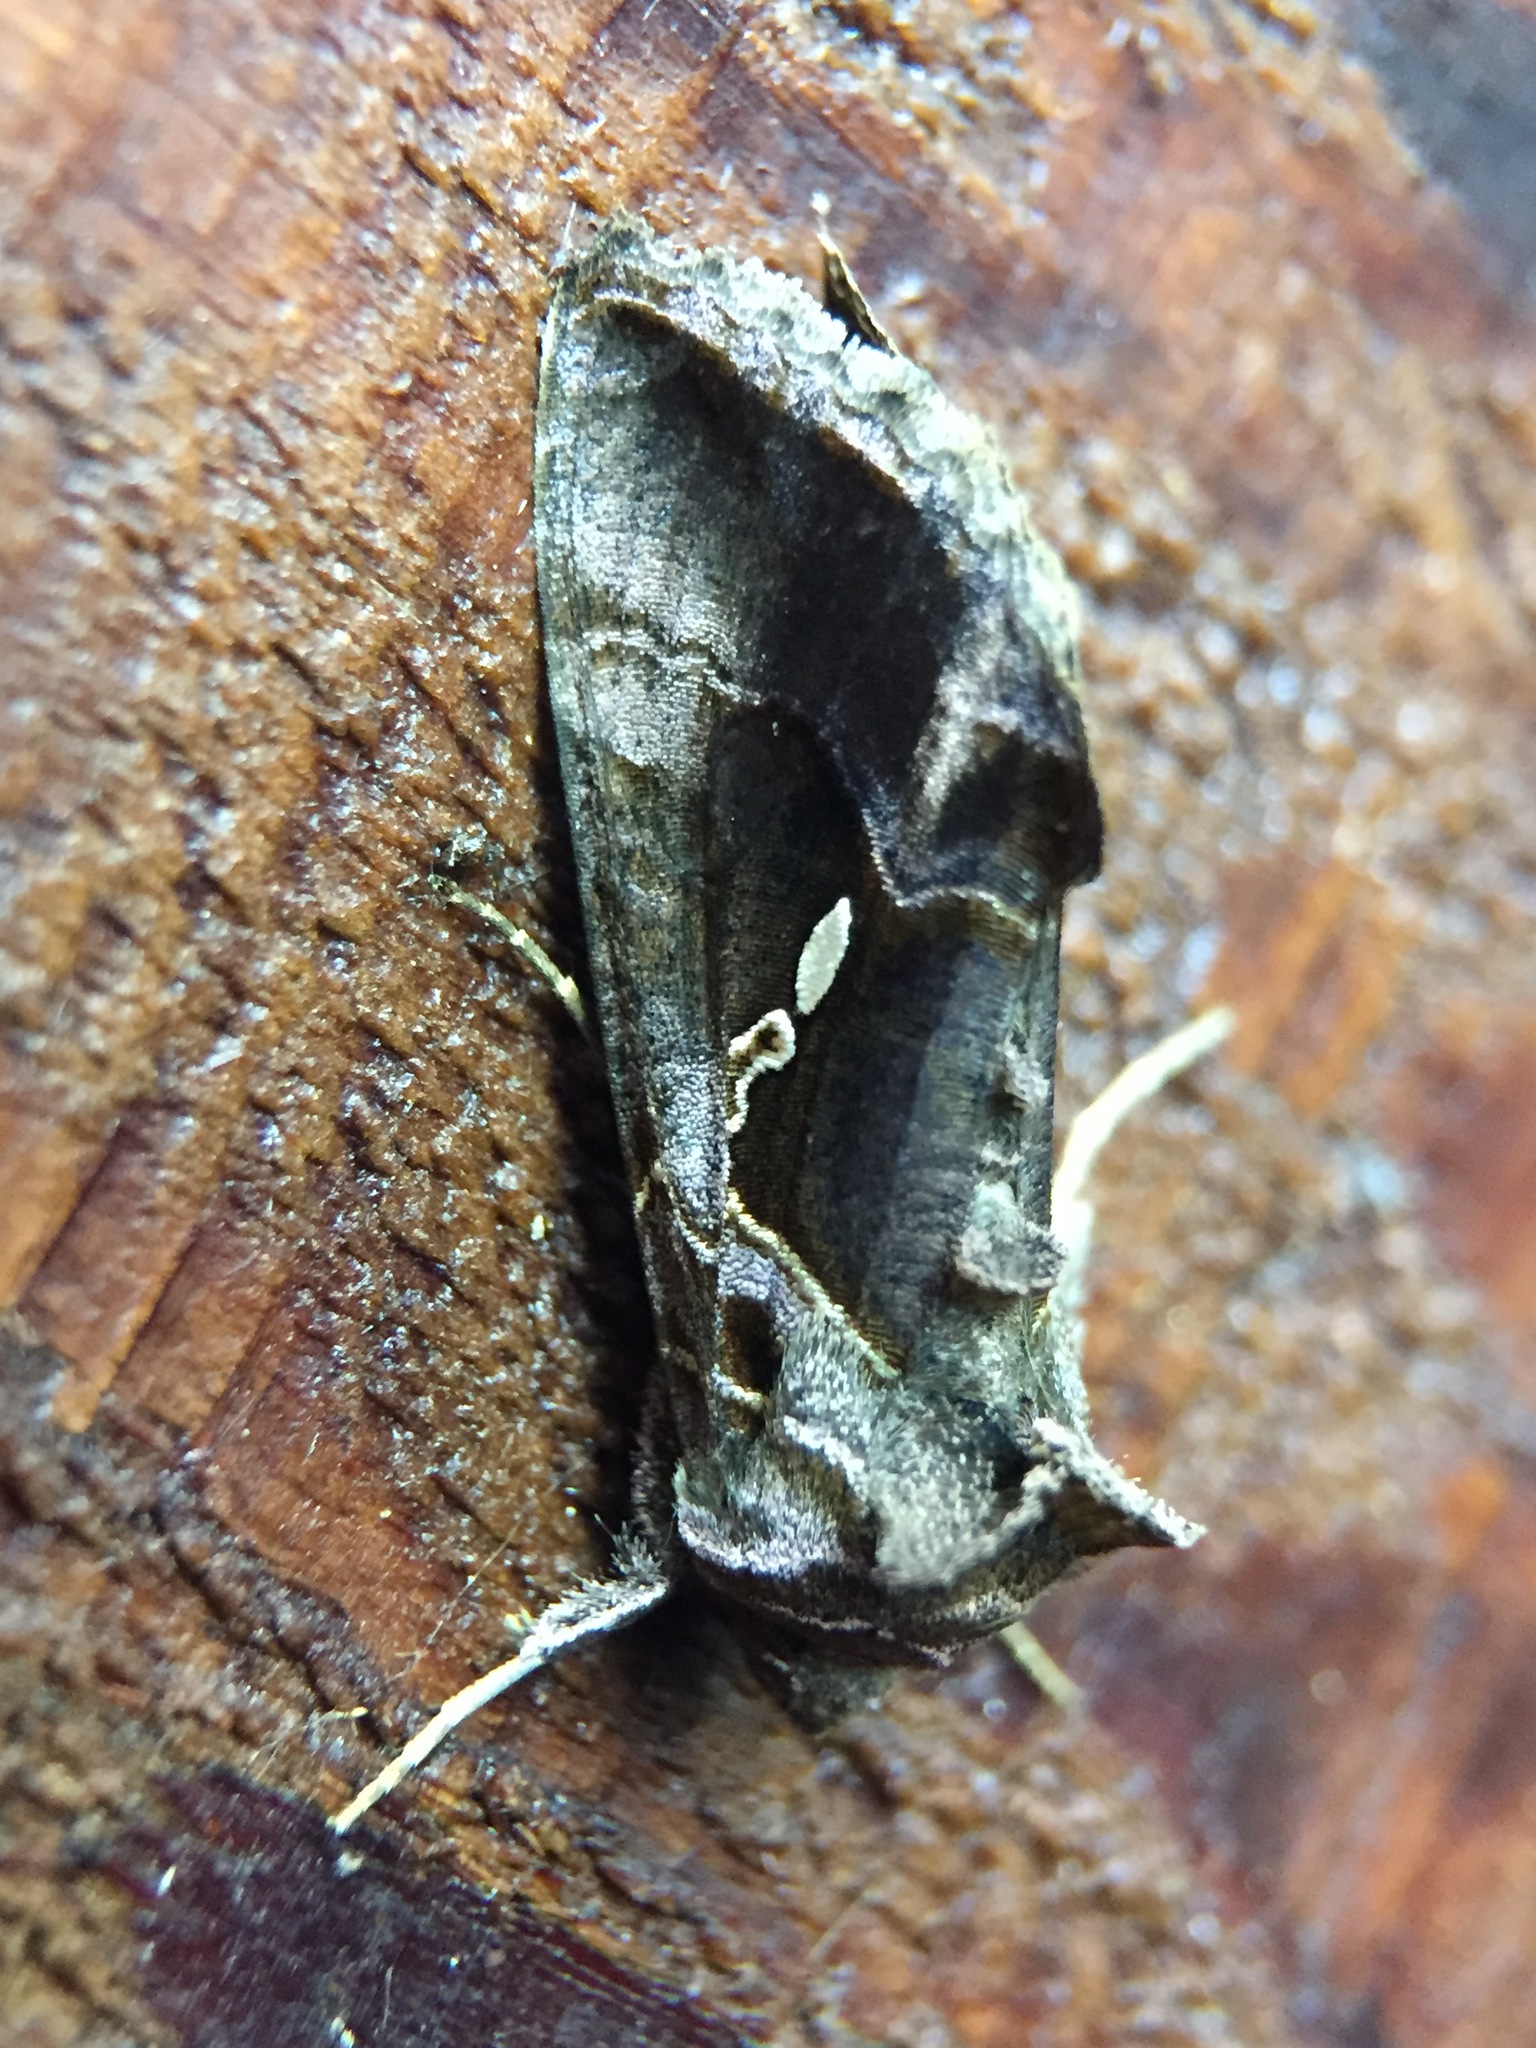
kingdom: Animalia
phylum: Arthropoda
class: Insecta
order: Lepidoptera
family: Noctuidae
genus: Chrysodeixis
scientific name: Chrysodeixis eriosoma
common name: Green garden looper
